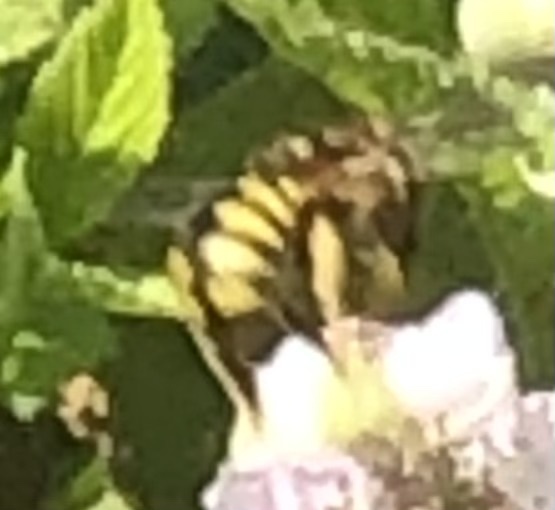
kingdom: Animalia
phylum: Arthropoda
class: Insecta
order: Hymenoptera
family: Megachilidae
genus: Anthidium
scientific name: Anthidium florentinum
